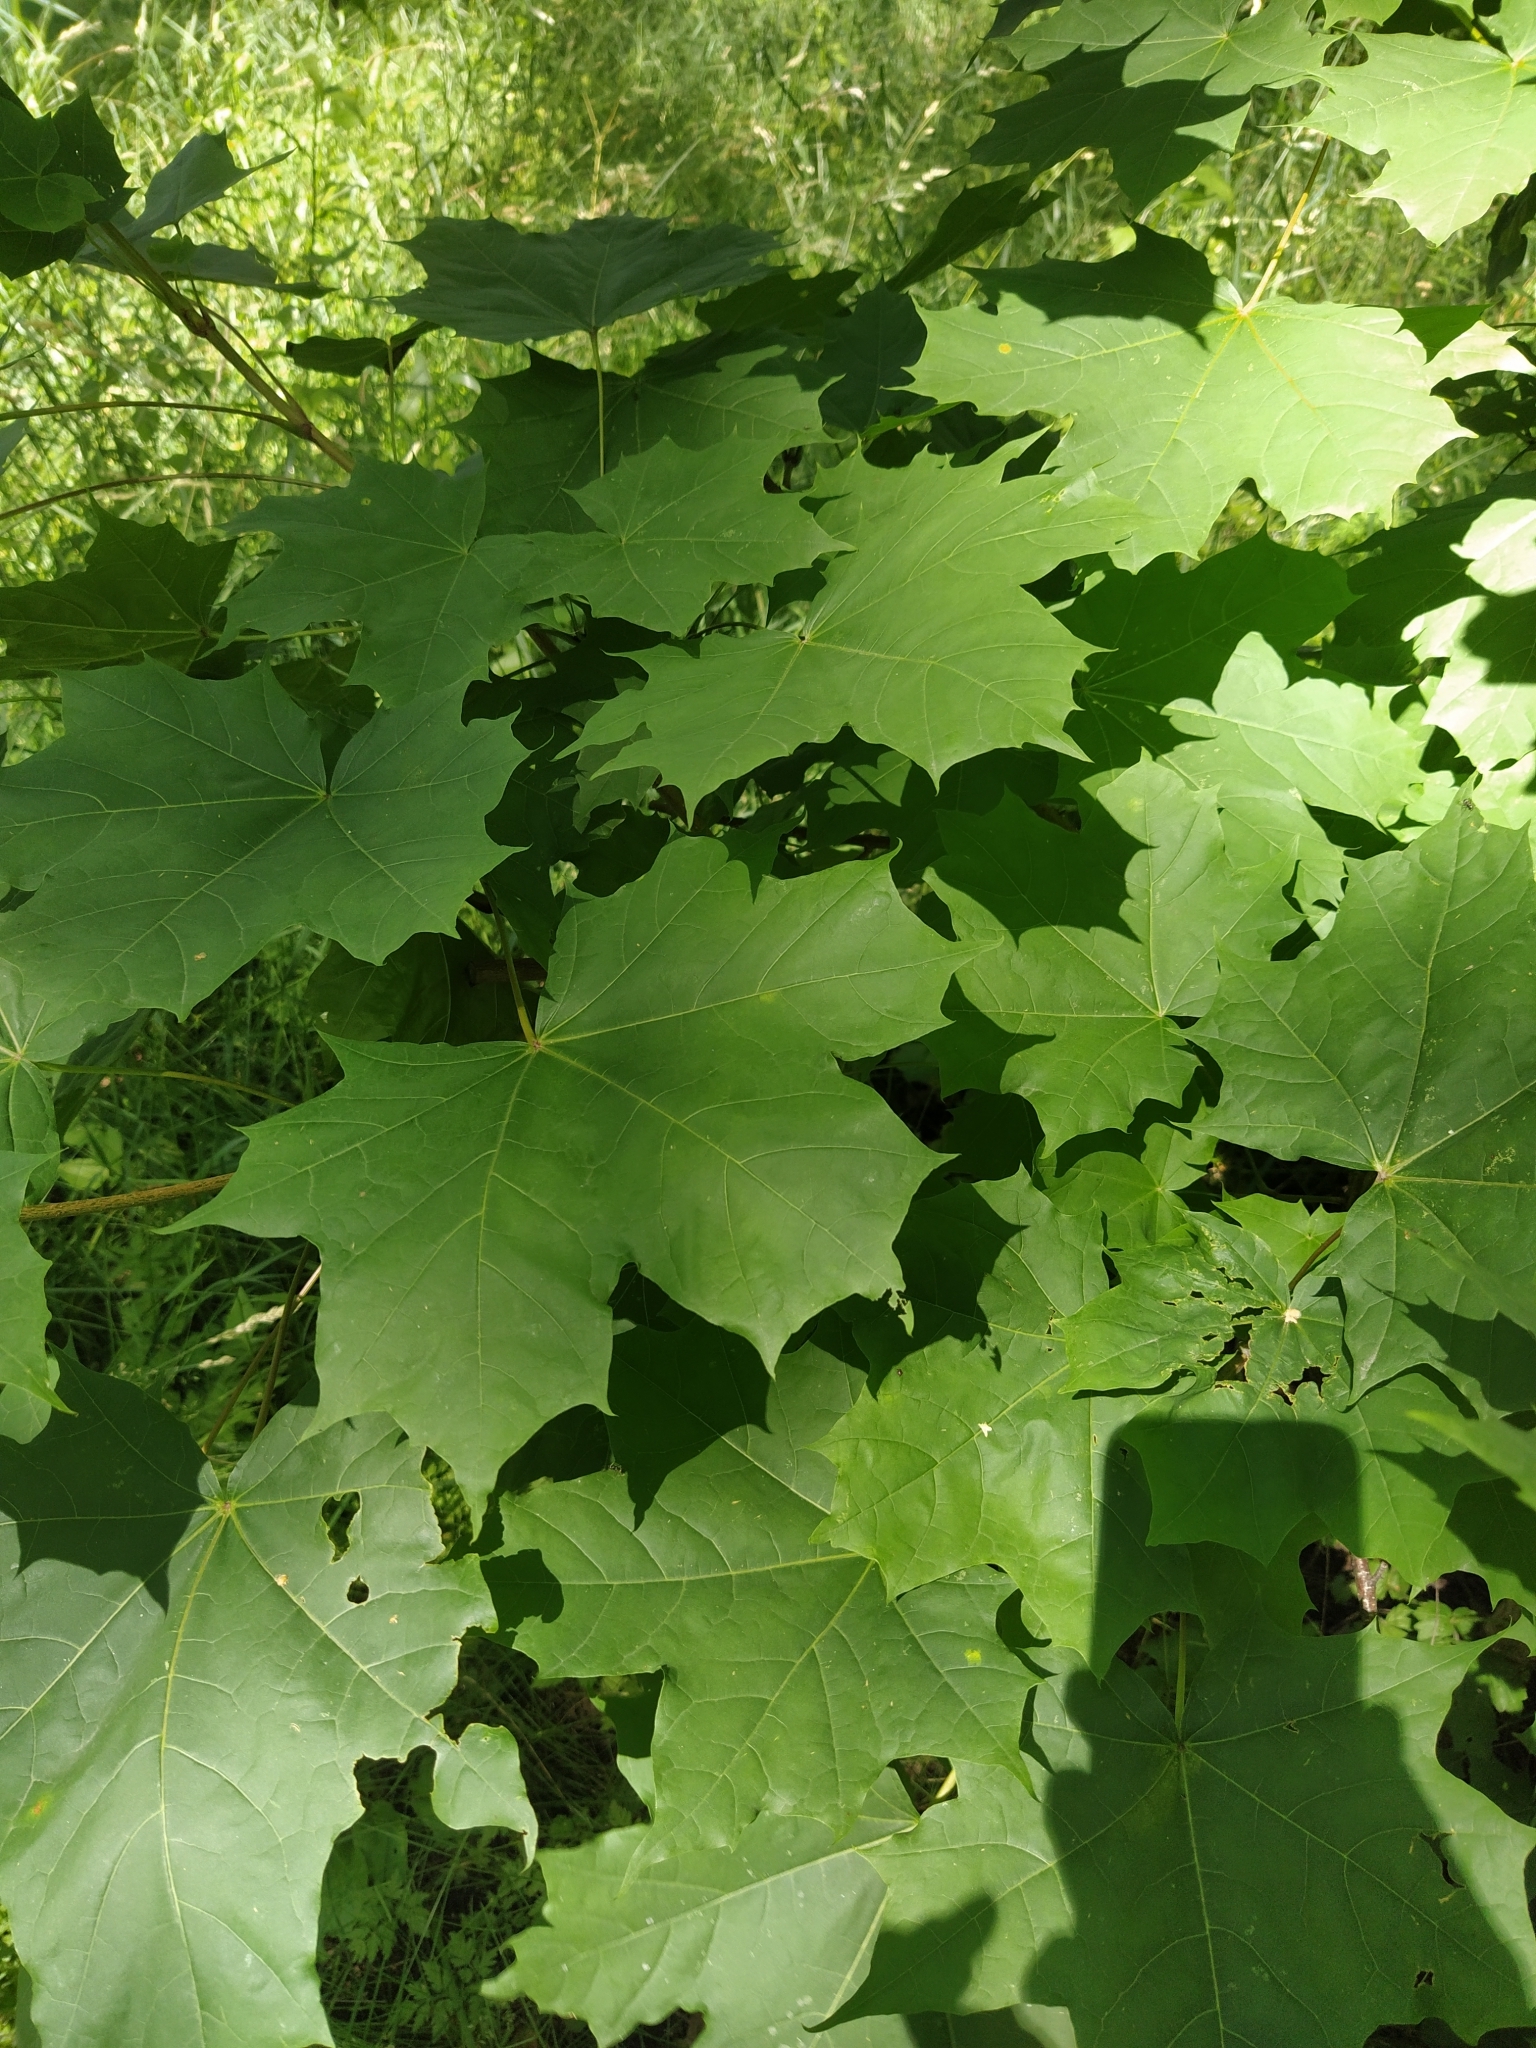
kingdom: Plantae
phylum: Tracheophyta
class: Magnoliopsida
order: Sapindales
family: Sapindaceae
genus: Acer
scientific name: Acer platanoides
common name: Norway maple
